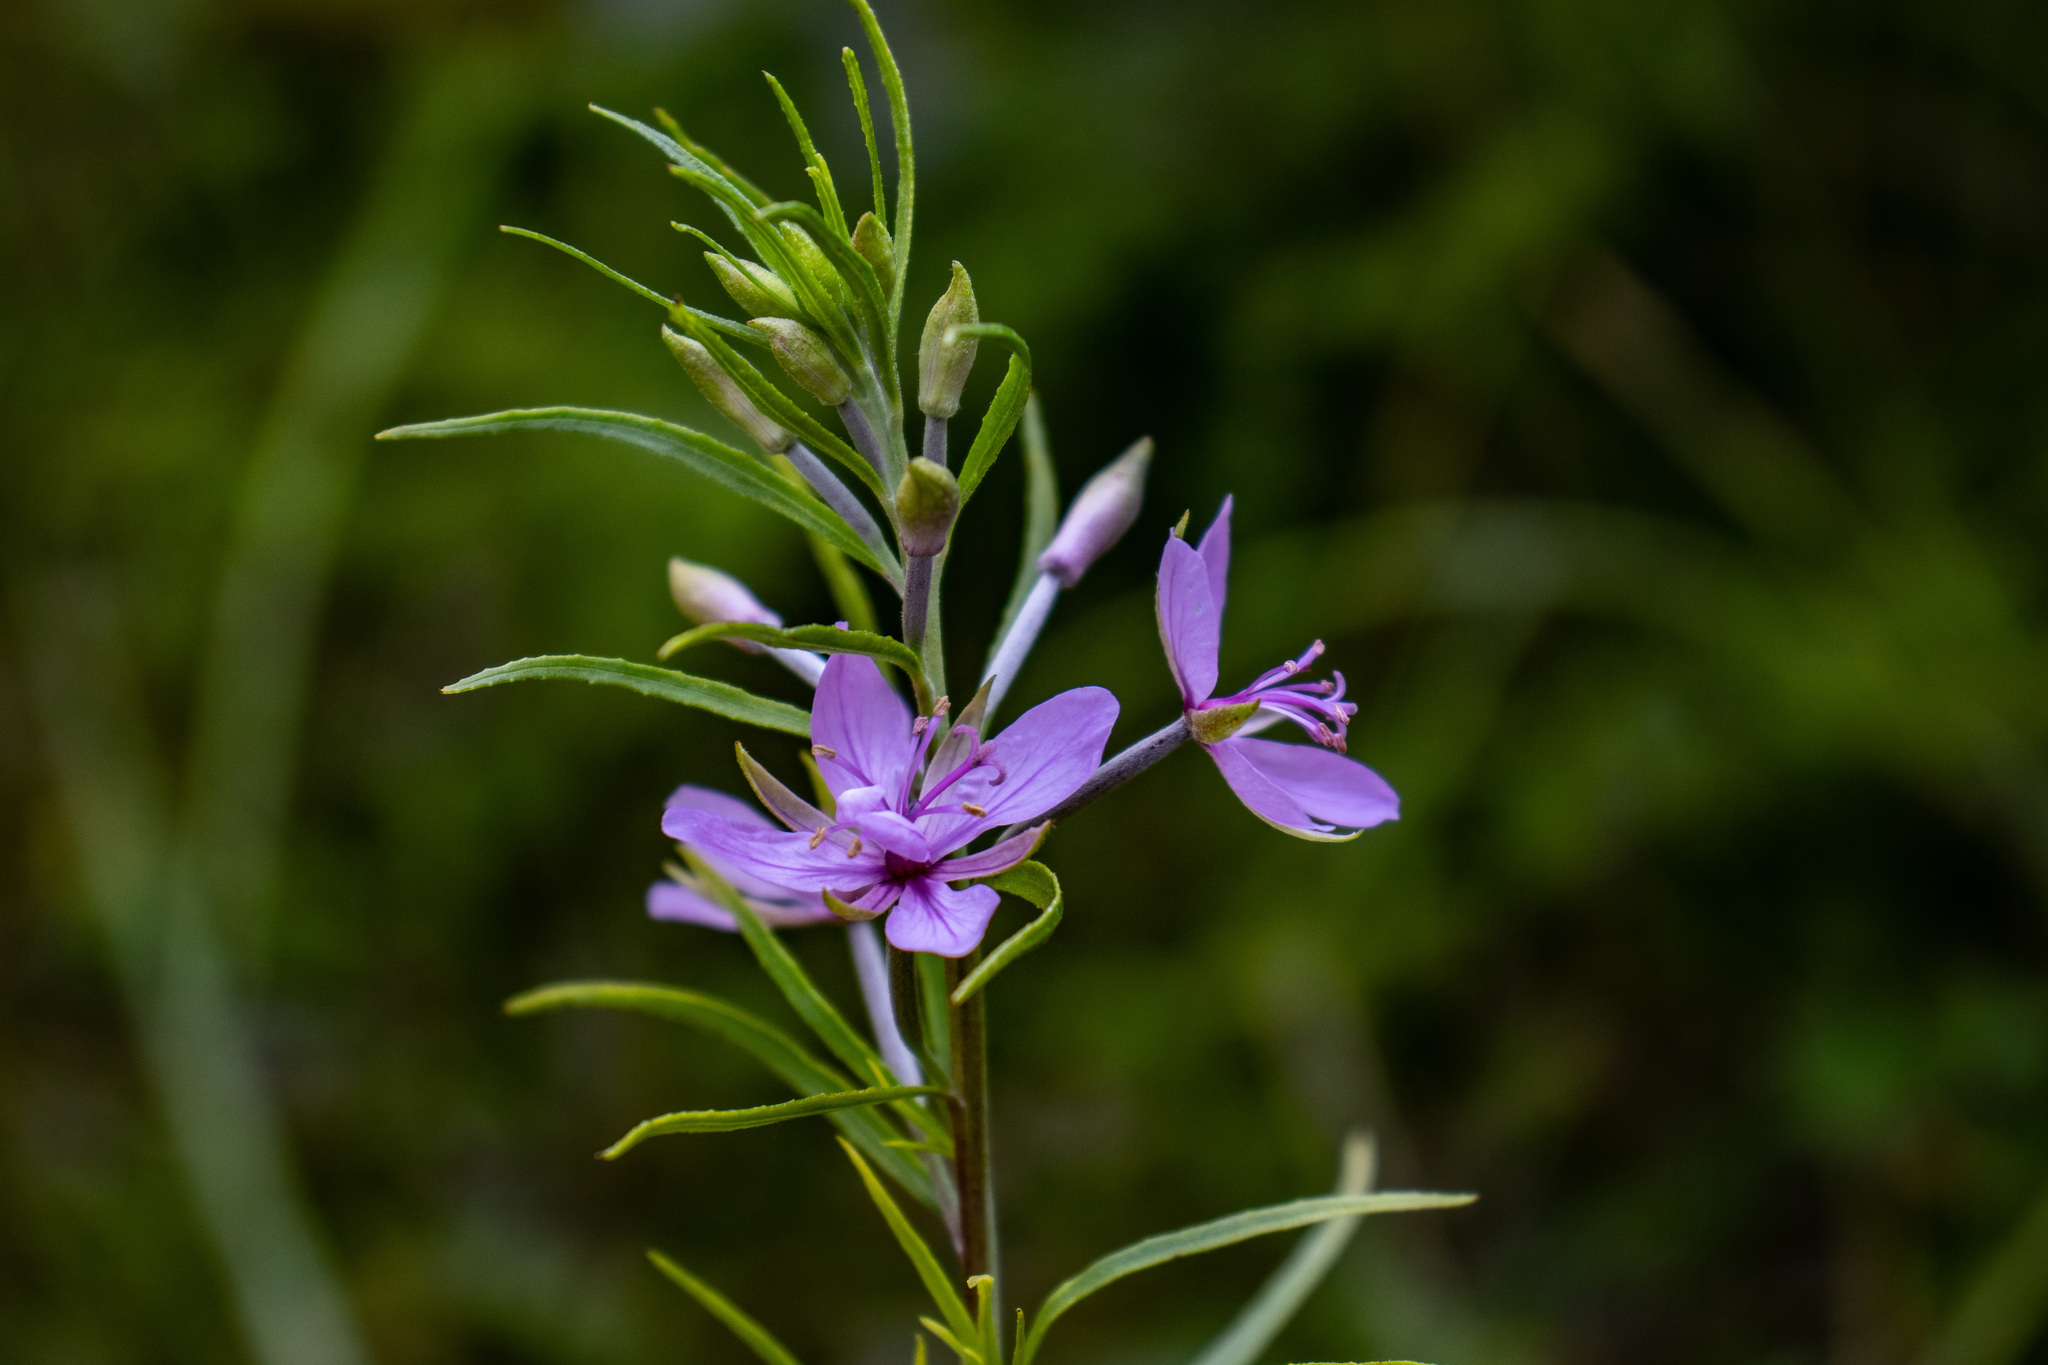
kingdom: Plantae
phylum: Tracheophyta
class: Magnoliopsida
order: Myrtales
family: Onagraceae
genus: Chamaenerion
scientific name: Chamaenerion dodonaei
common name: Rosemary-leaved willowherb
